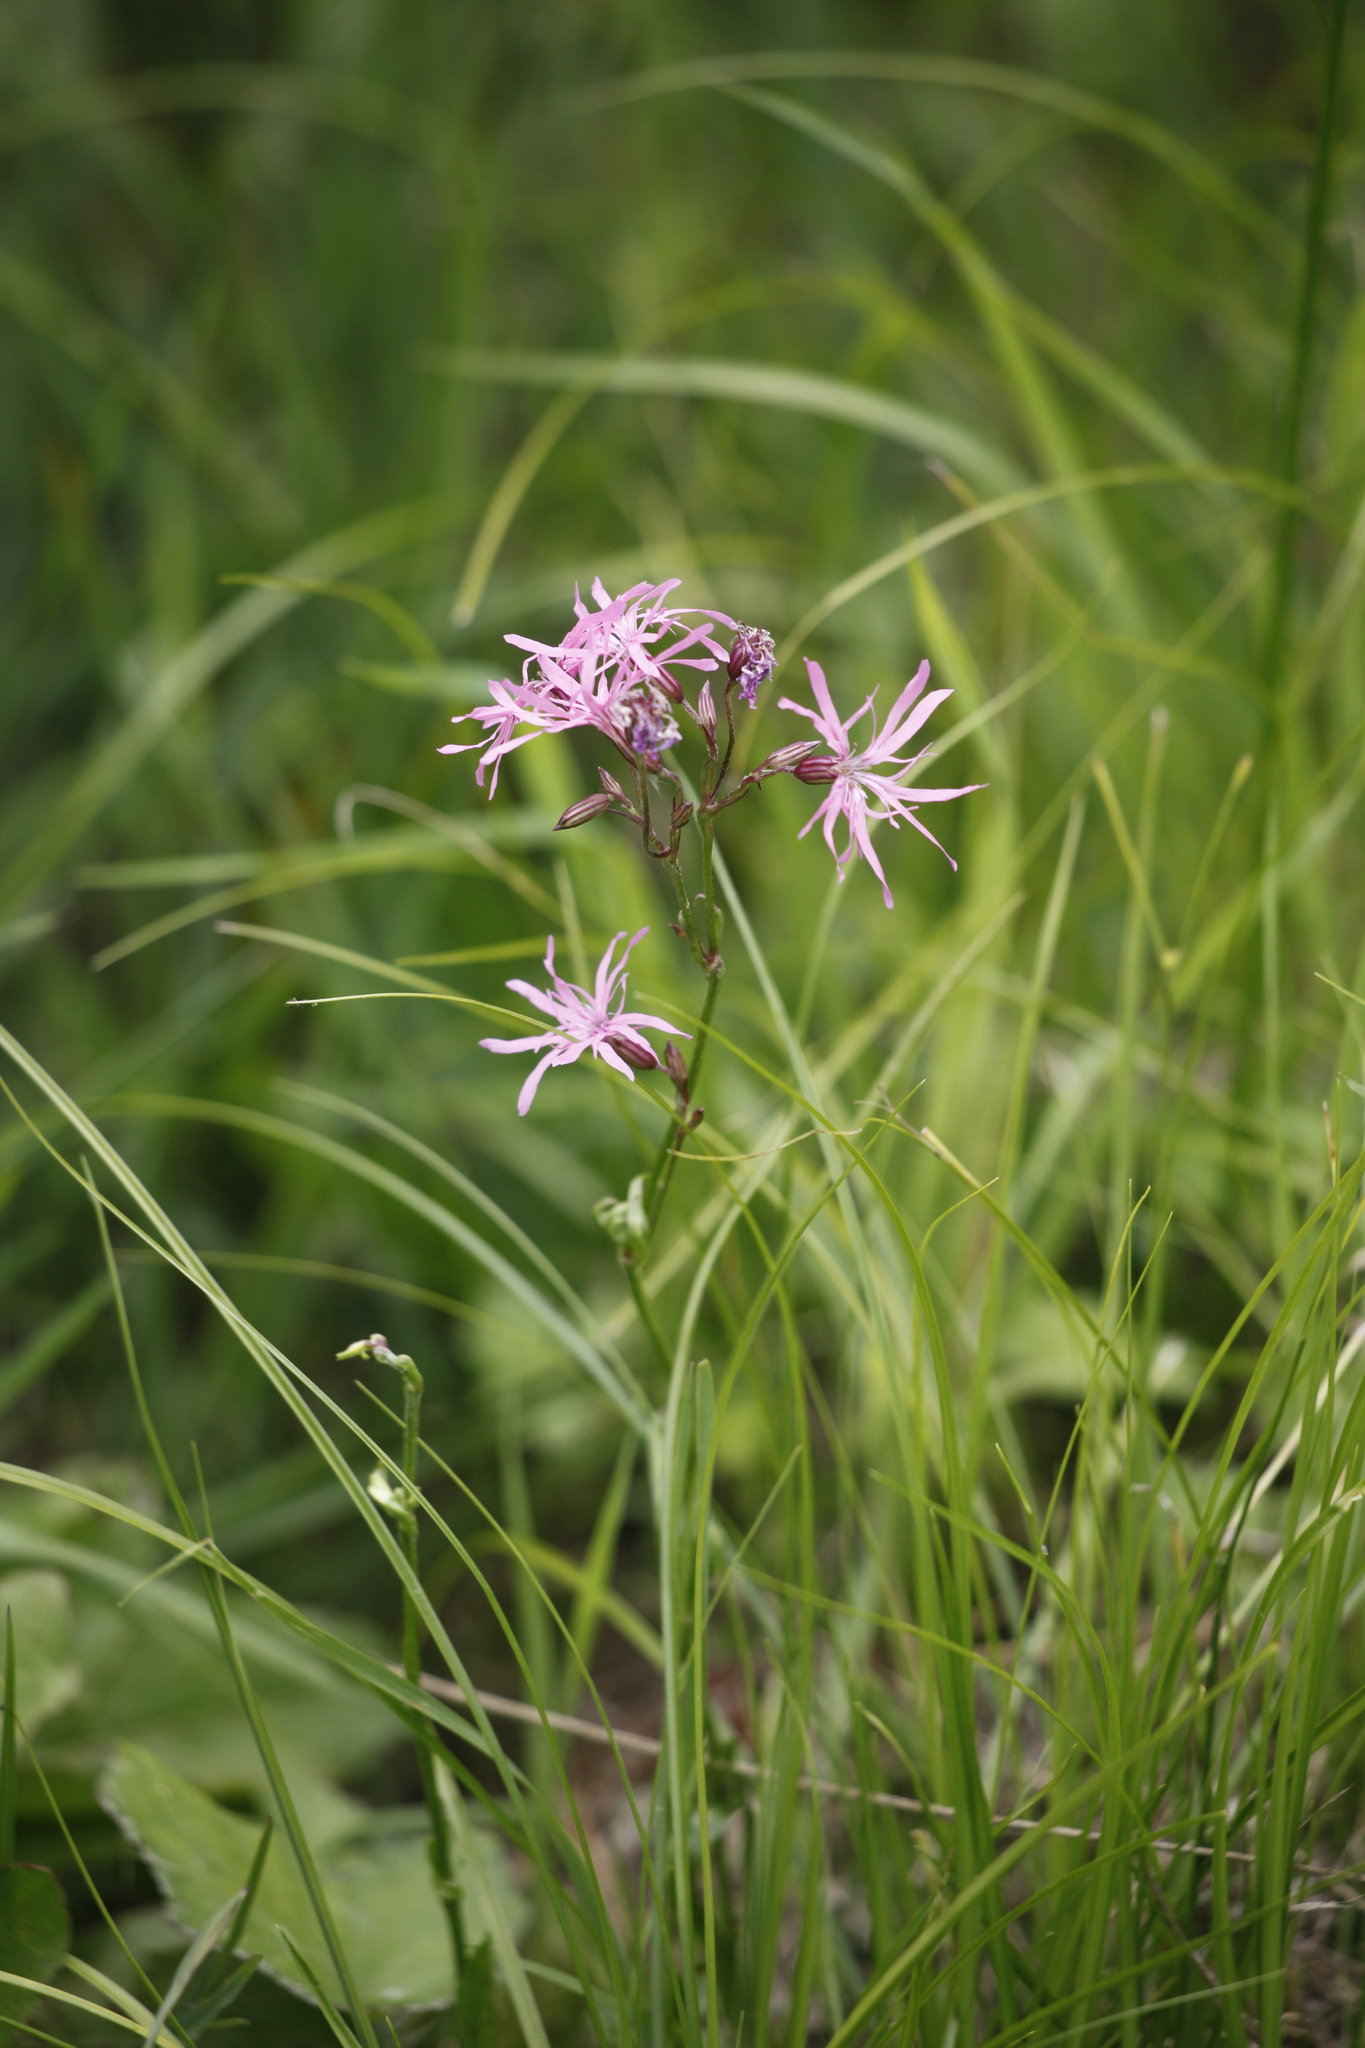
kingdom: Plantae
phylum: Tracheophyta
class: Magnoliopsida
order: Caryophyllales
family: Caryophyllaceae
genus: Silene
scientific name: Silene flos-cuculi
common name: Ragged-robin
